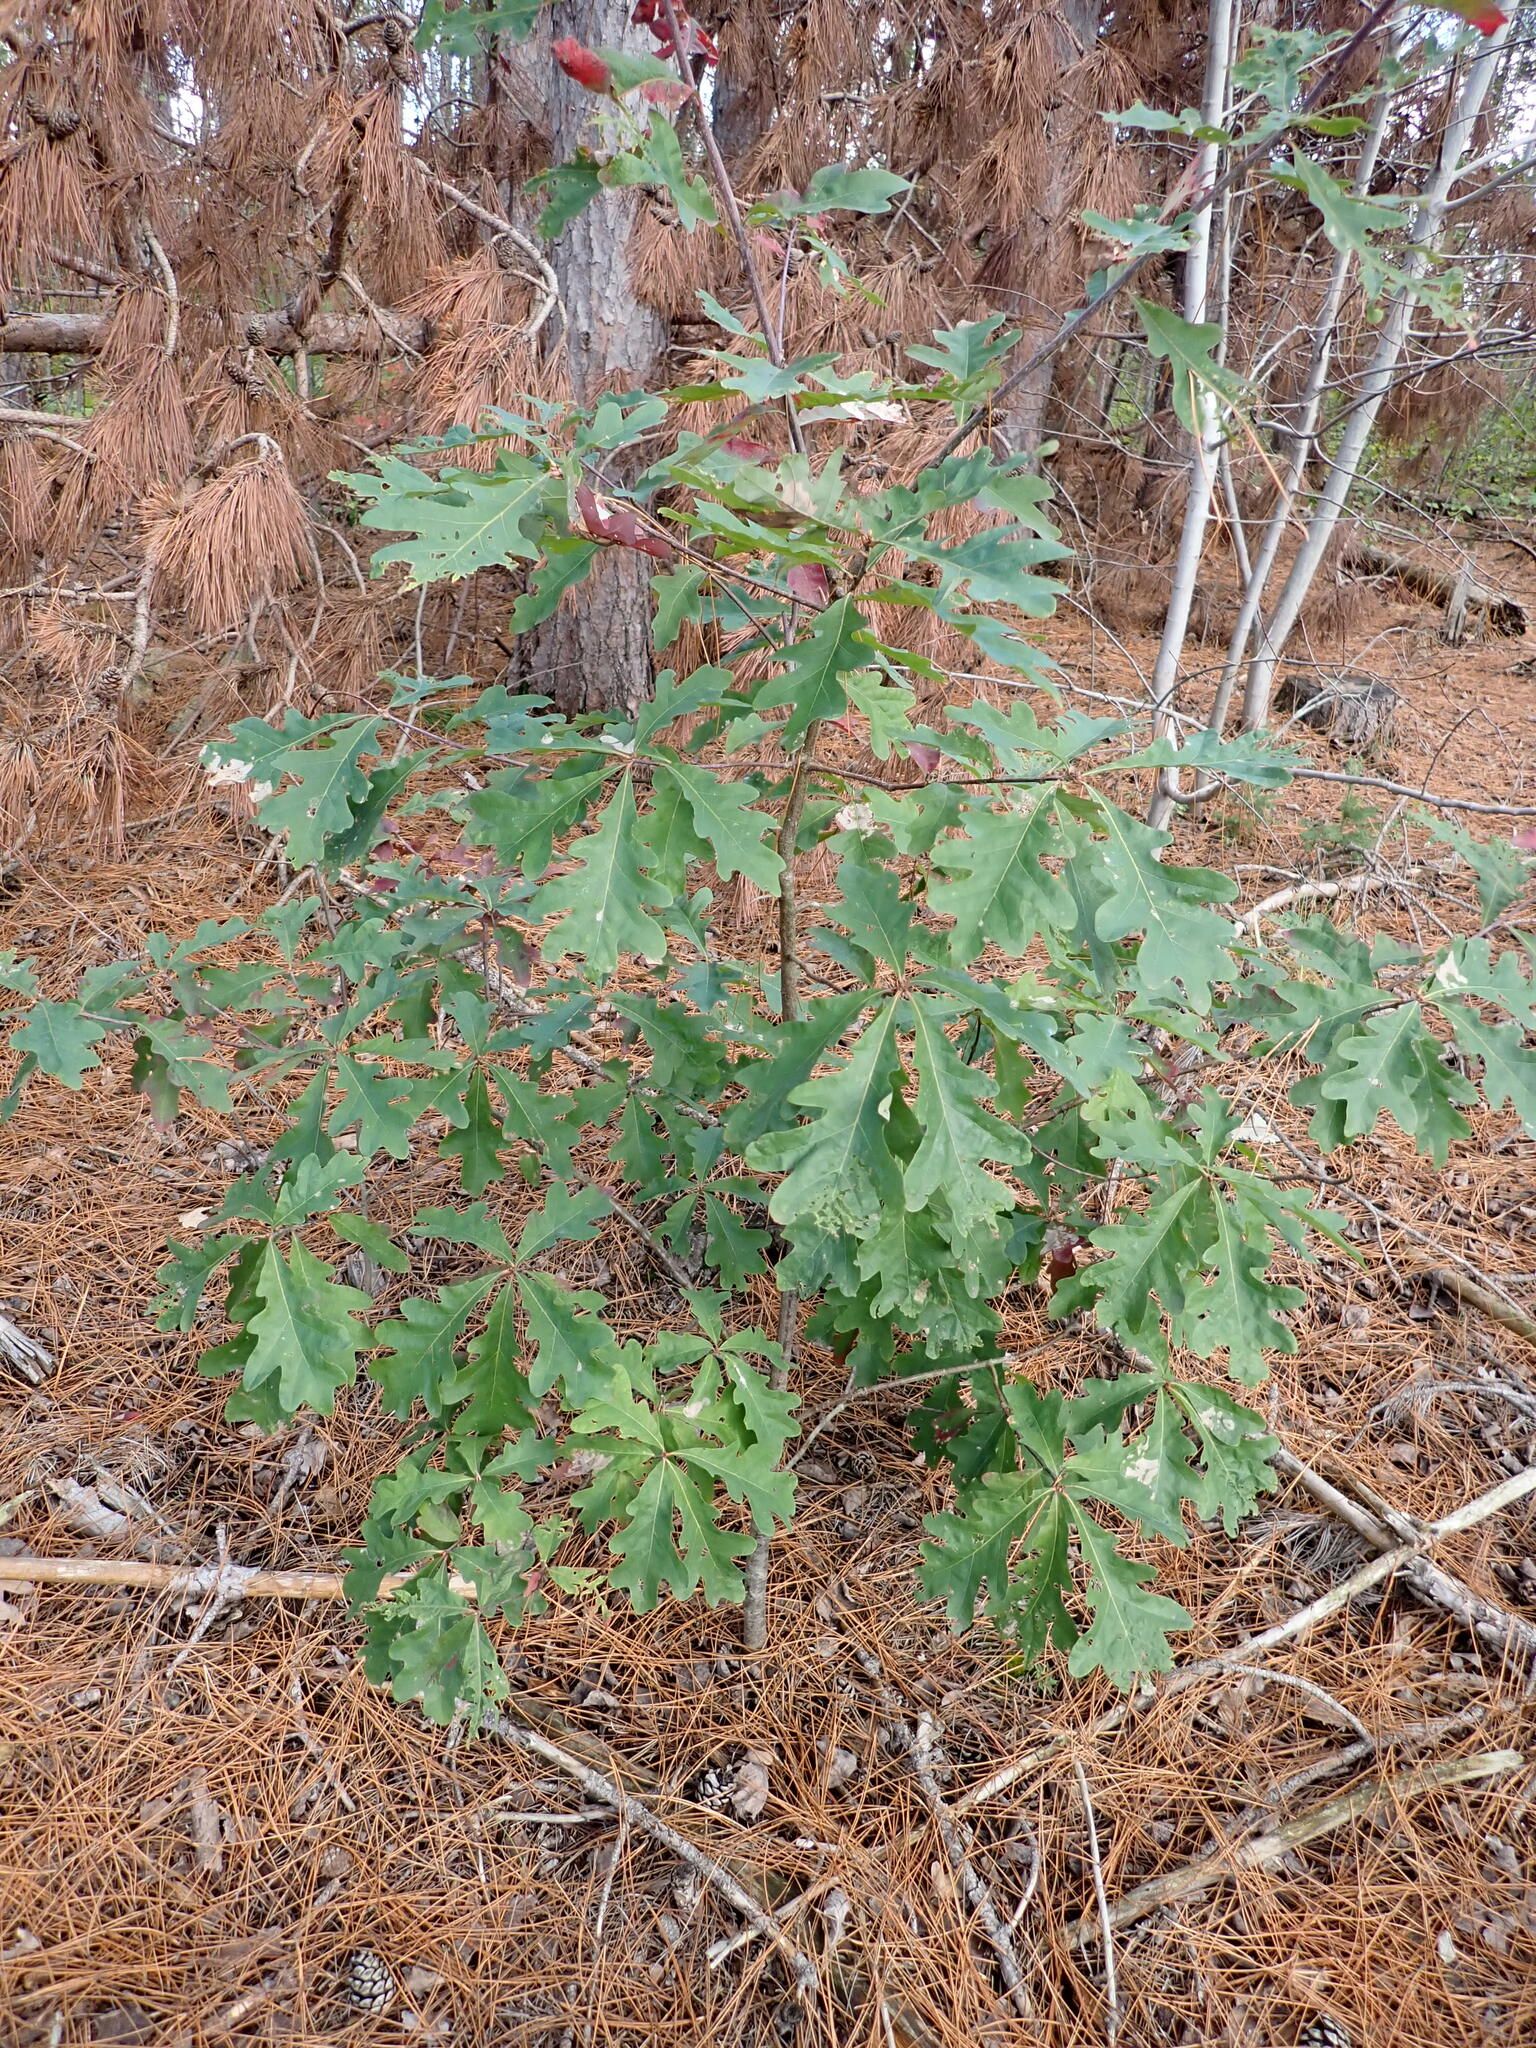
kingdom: Plantae
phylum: Tracheophyta
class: Magnoliopsida
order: Fagales
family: Fagaceae
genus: Quercus
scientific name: Quercus alba
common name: White oak
